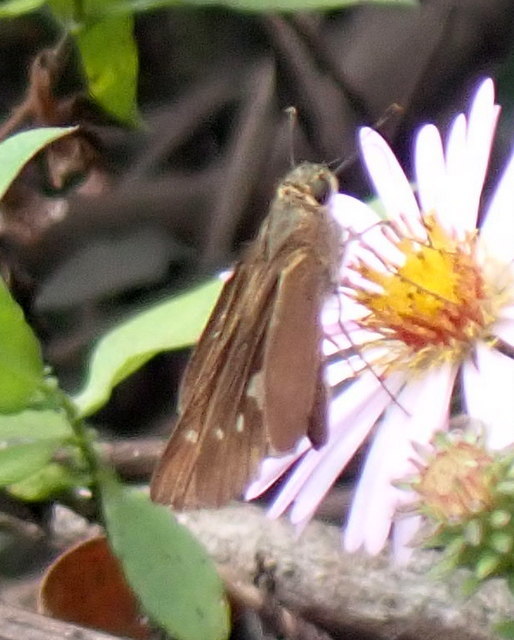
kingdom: Animalia
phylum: Arthropoda
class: Insecta
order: Lepidoptera
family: Hesperiidae
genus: Panoquina
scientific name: Panoquina ocola
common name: Ocola skipper
